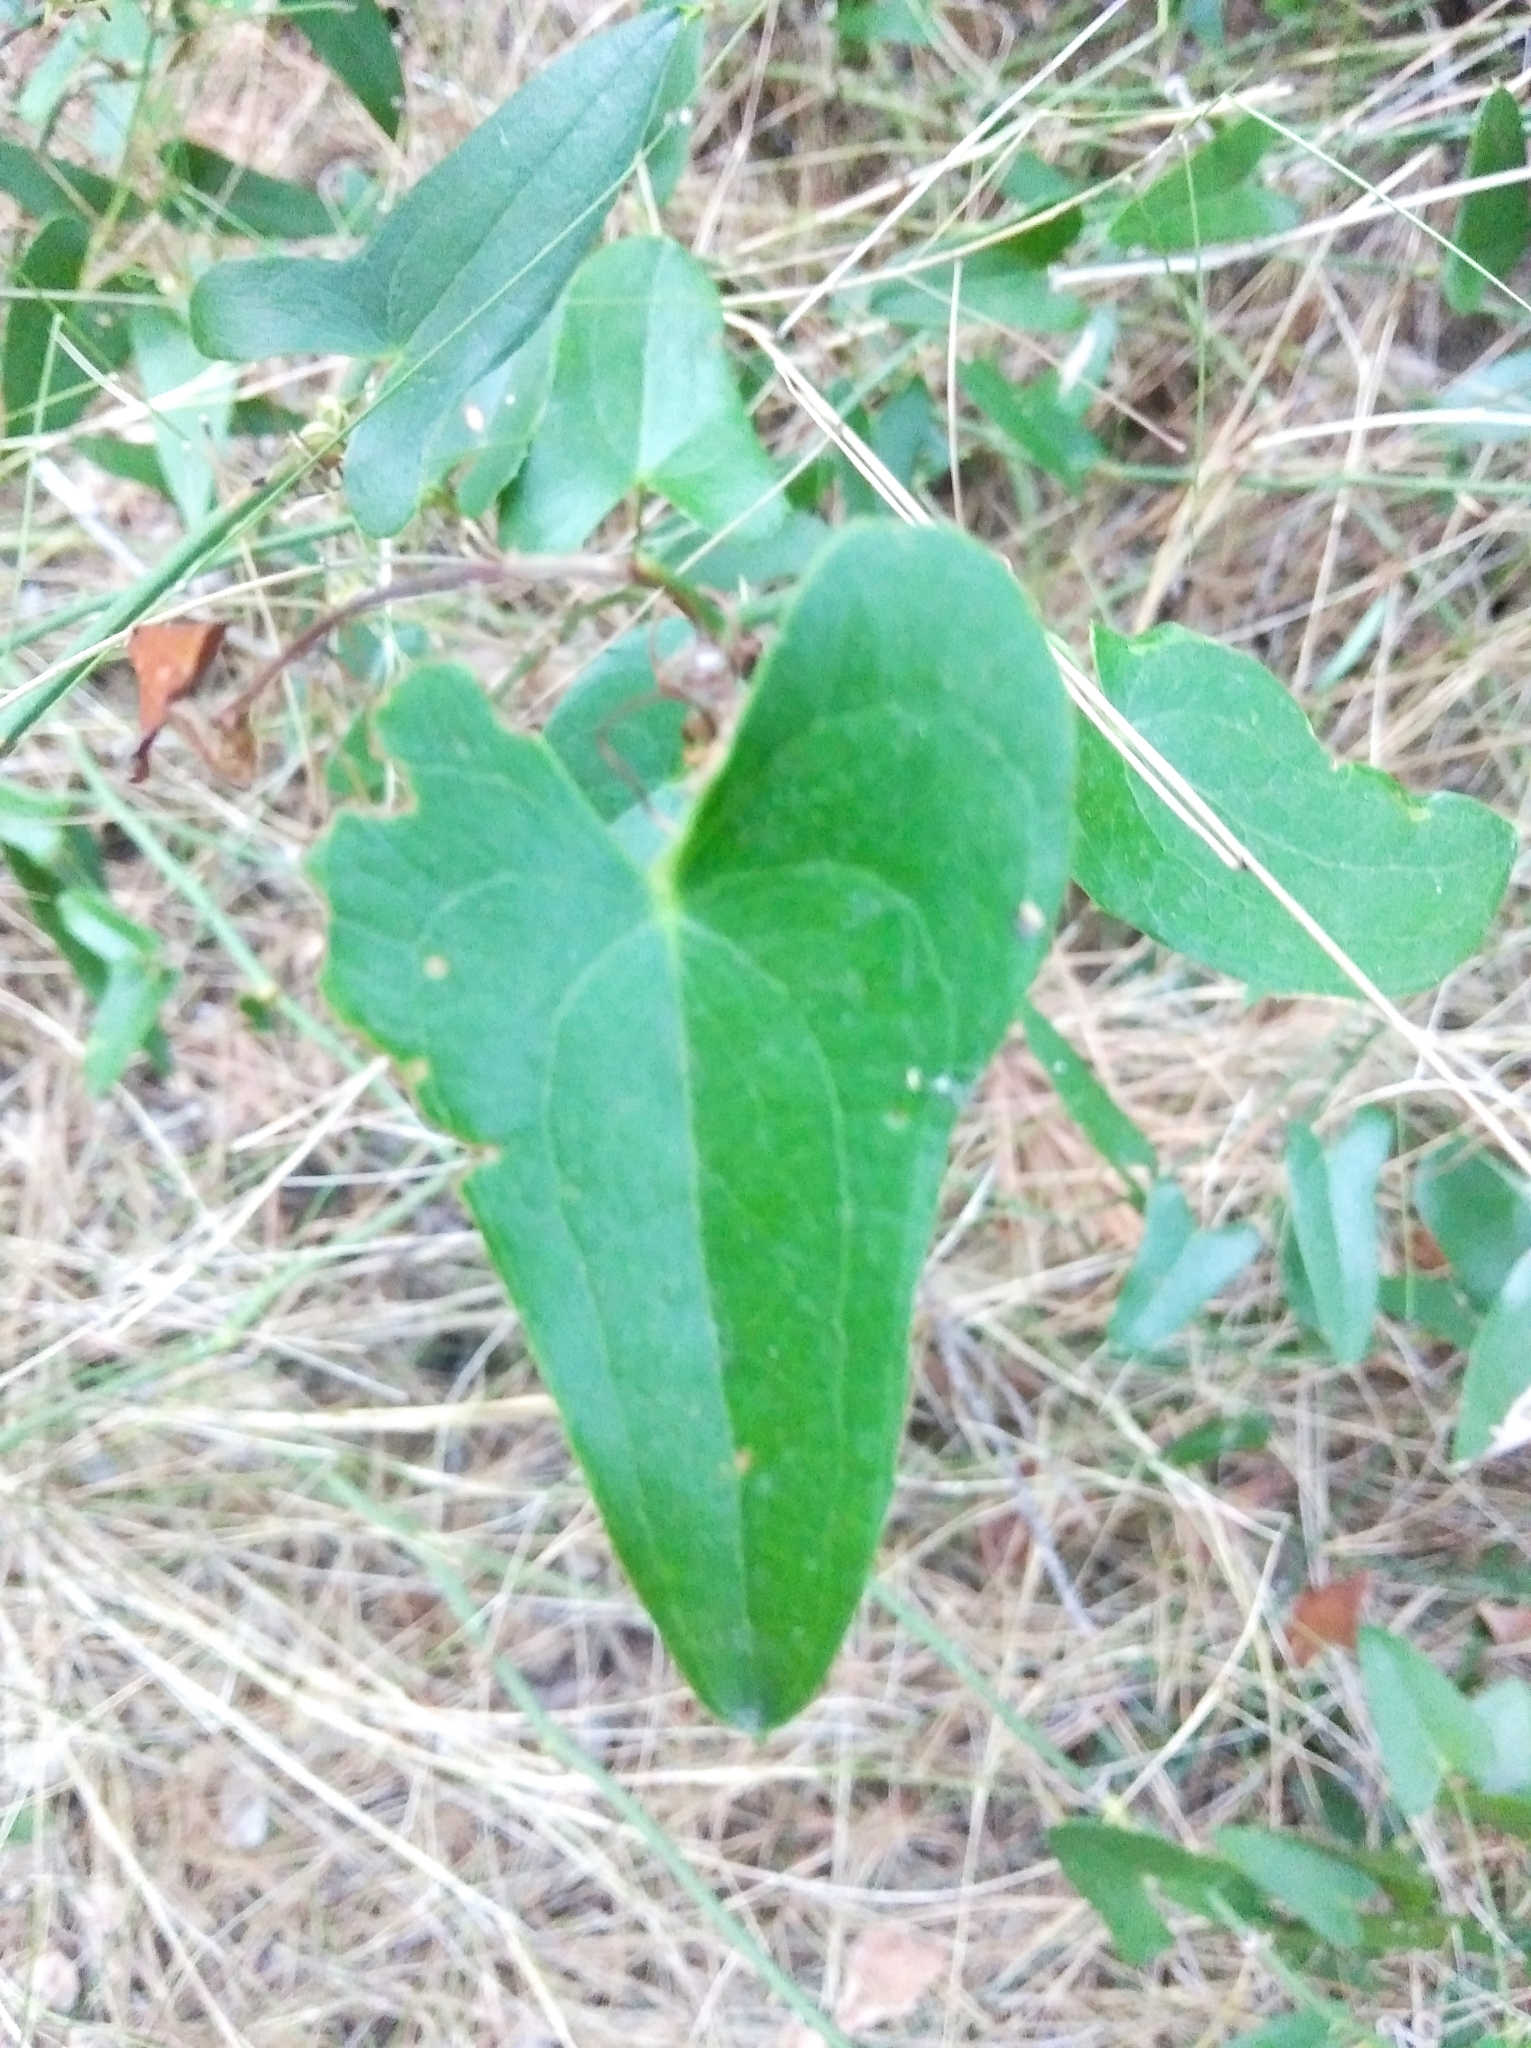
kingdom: Plantae
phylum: Tracheophyta
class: Liliopsida
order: Liliales
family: Smilacaceae
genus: Smilax
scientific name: Smilax aspera
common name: Common smilax
